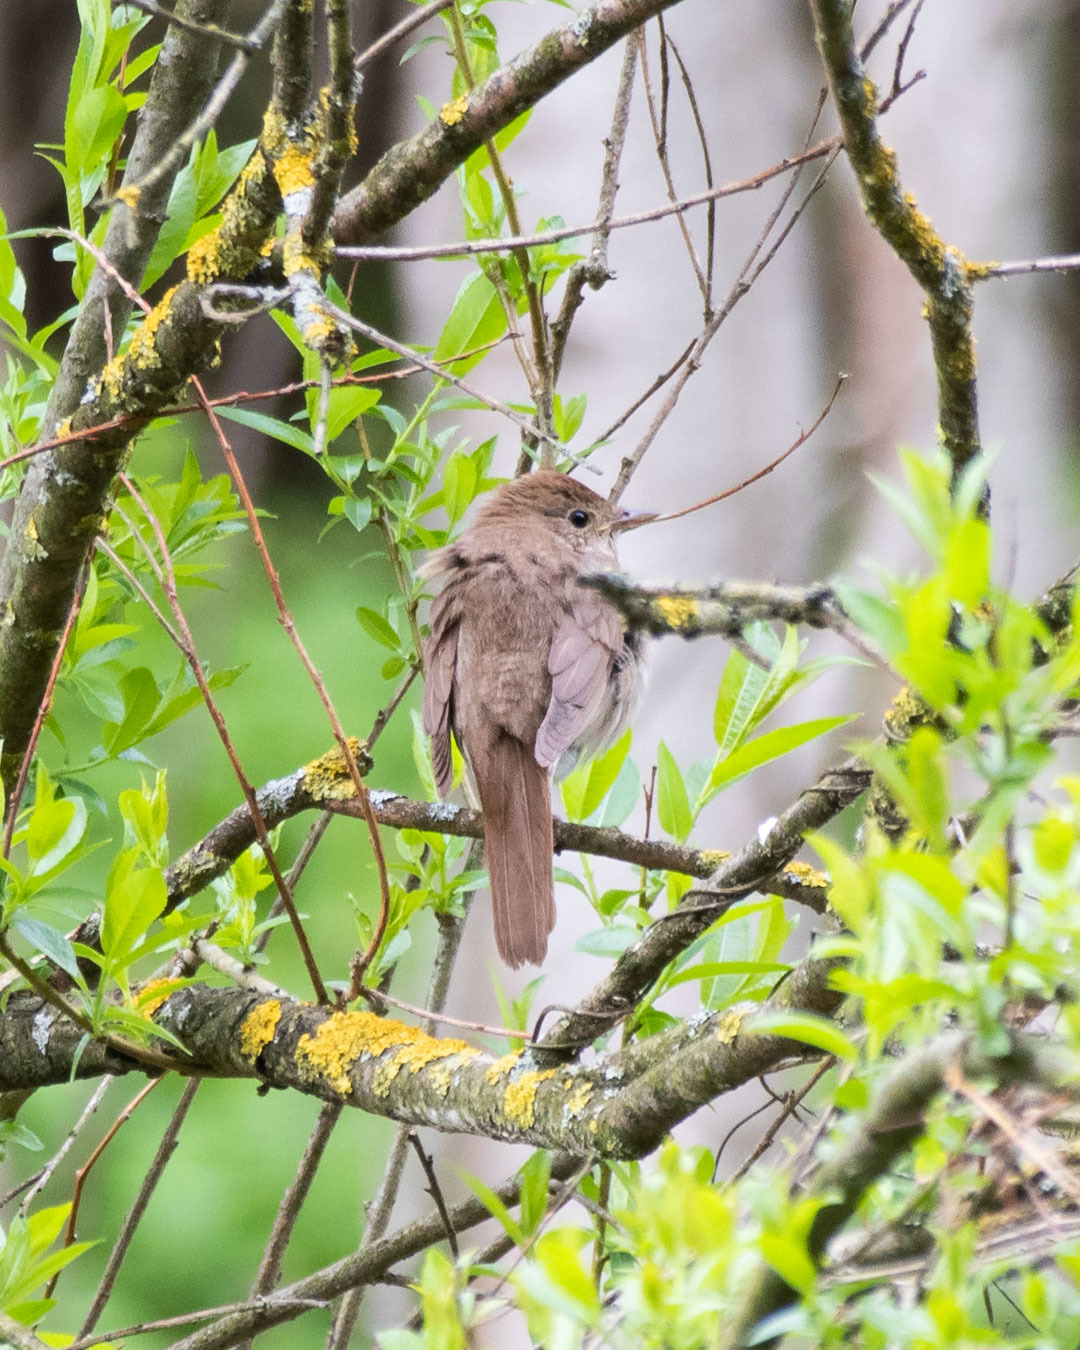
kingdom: Animalia
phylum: Chordata
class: Aves
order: Passeriformes
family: Muscicapidae
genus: Luscinia
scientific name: Luscinia luscinia
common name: Thrush nightingale
